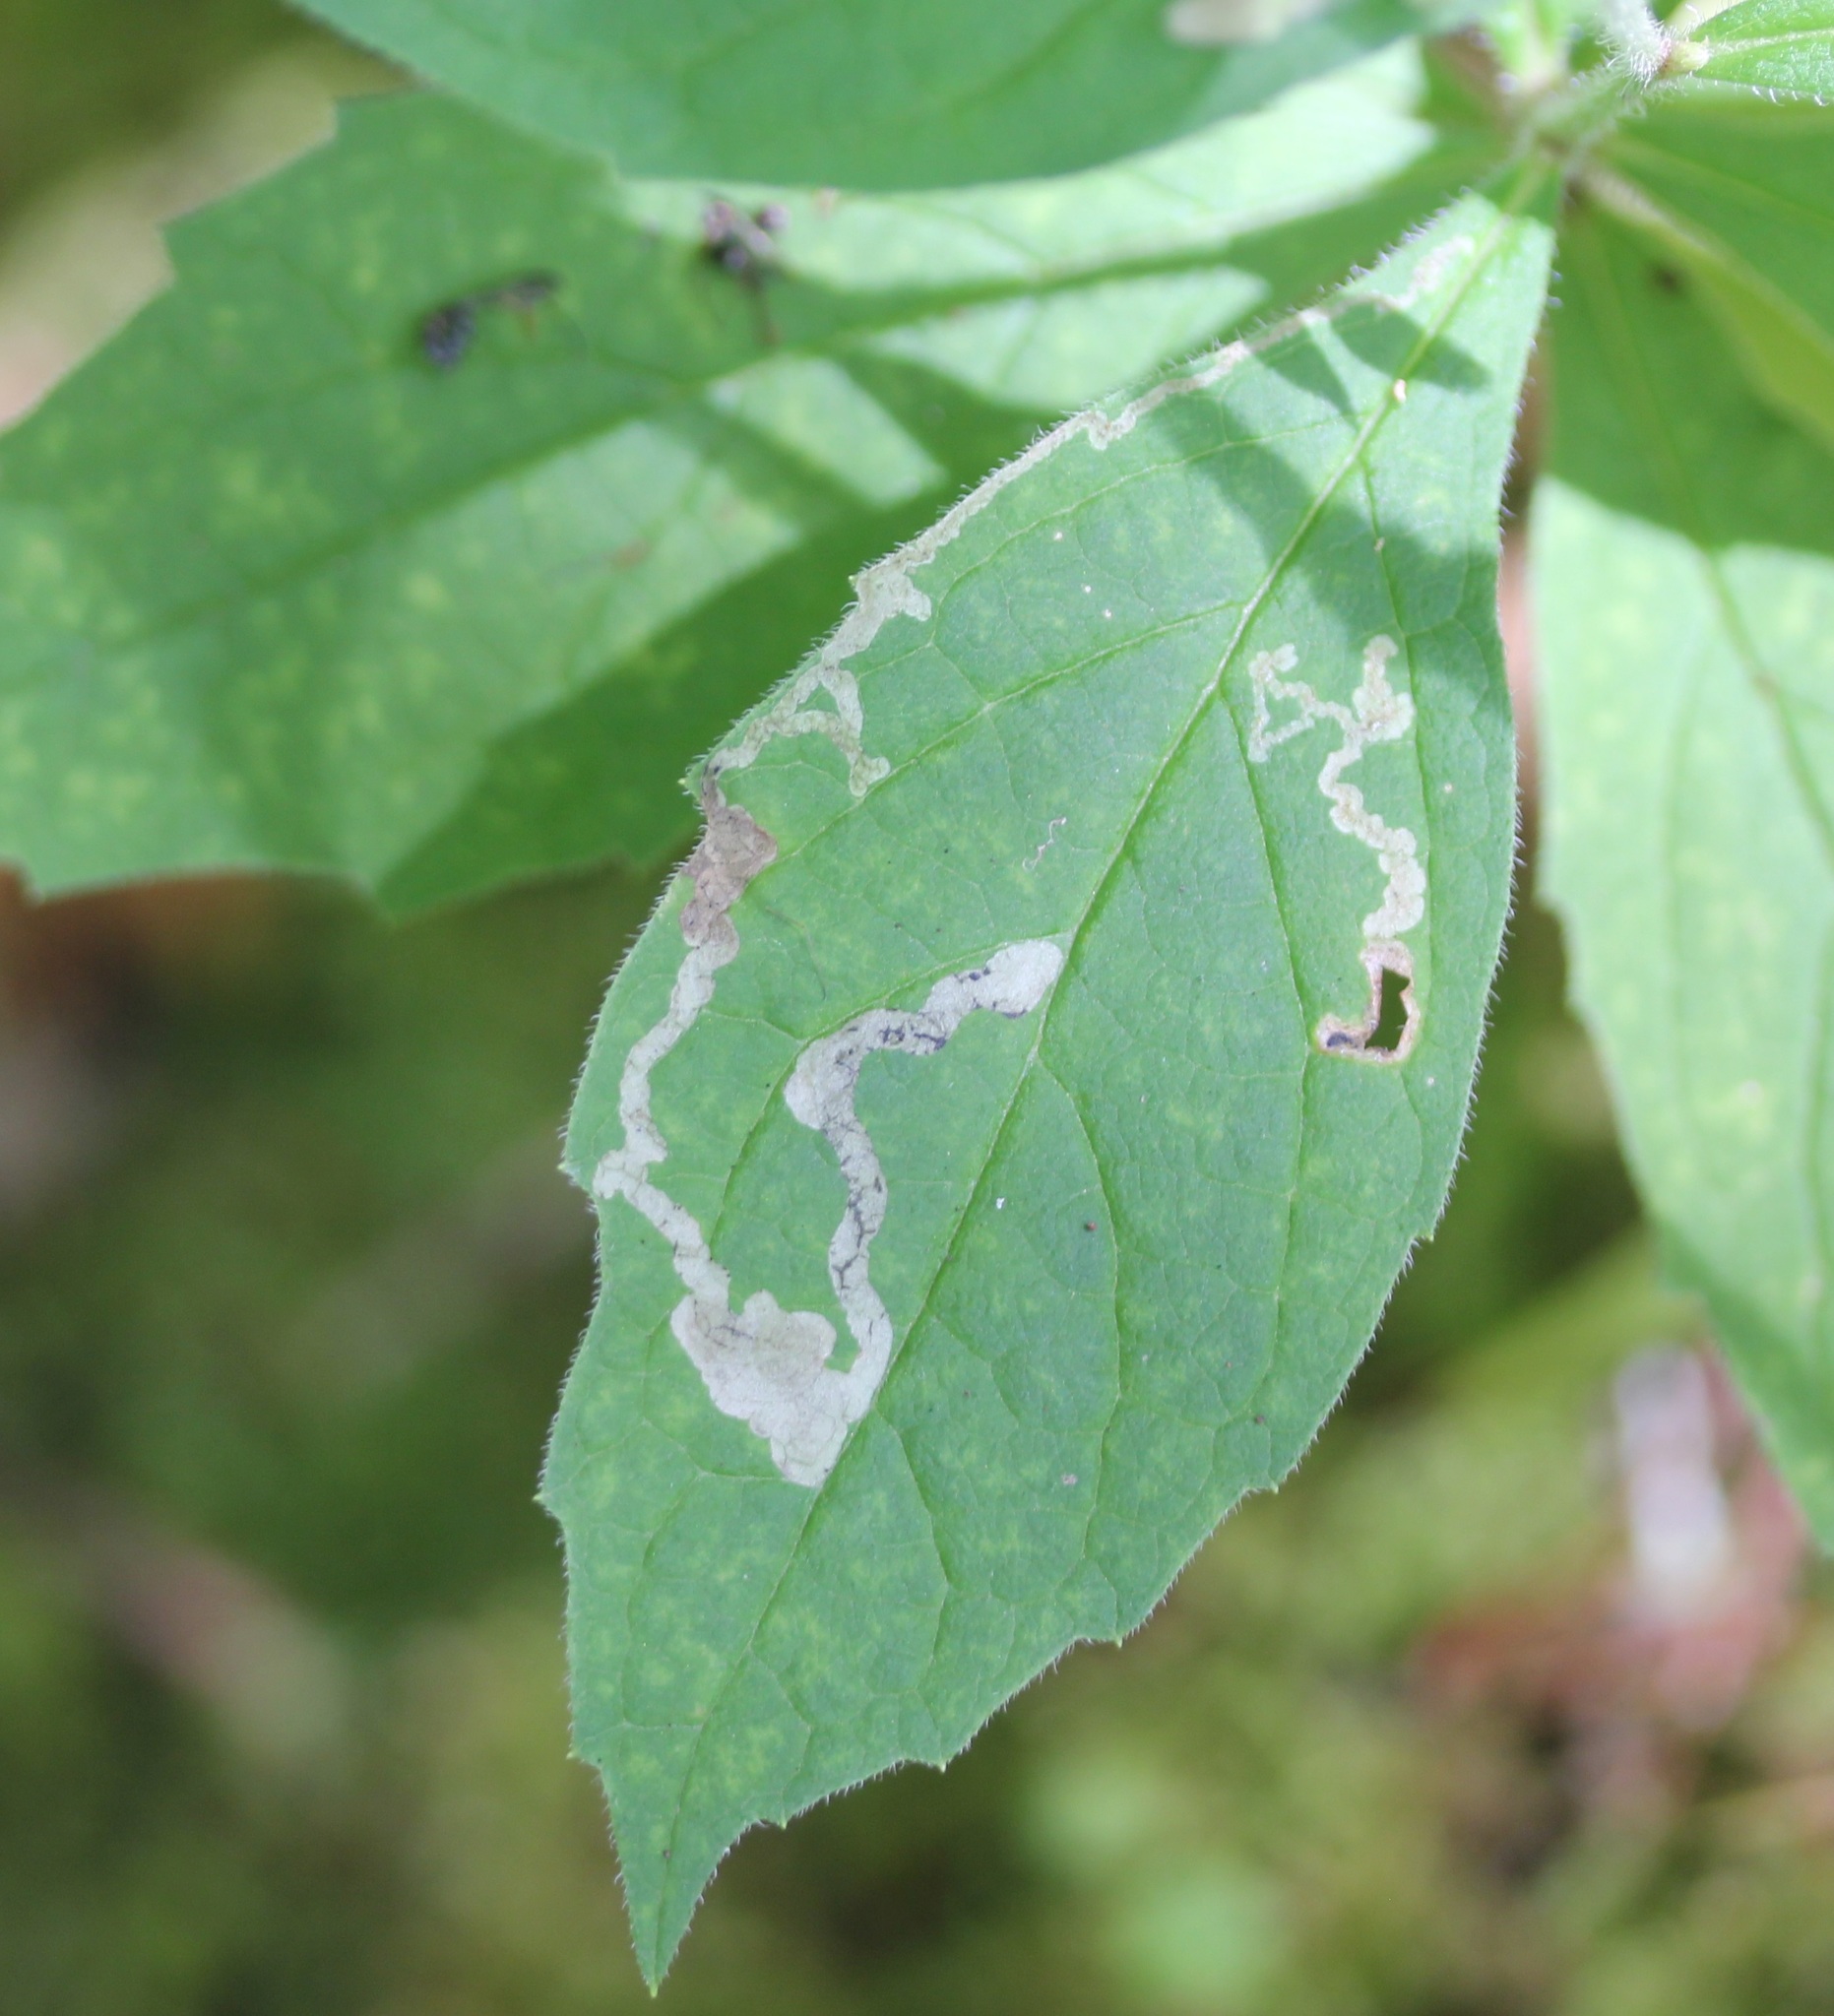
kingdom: Animalia
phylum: Arthropoda
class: Insecta
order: Diptera
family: Agromyzidae
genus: Liriomyza
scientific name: Liriomyza limopsis
